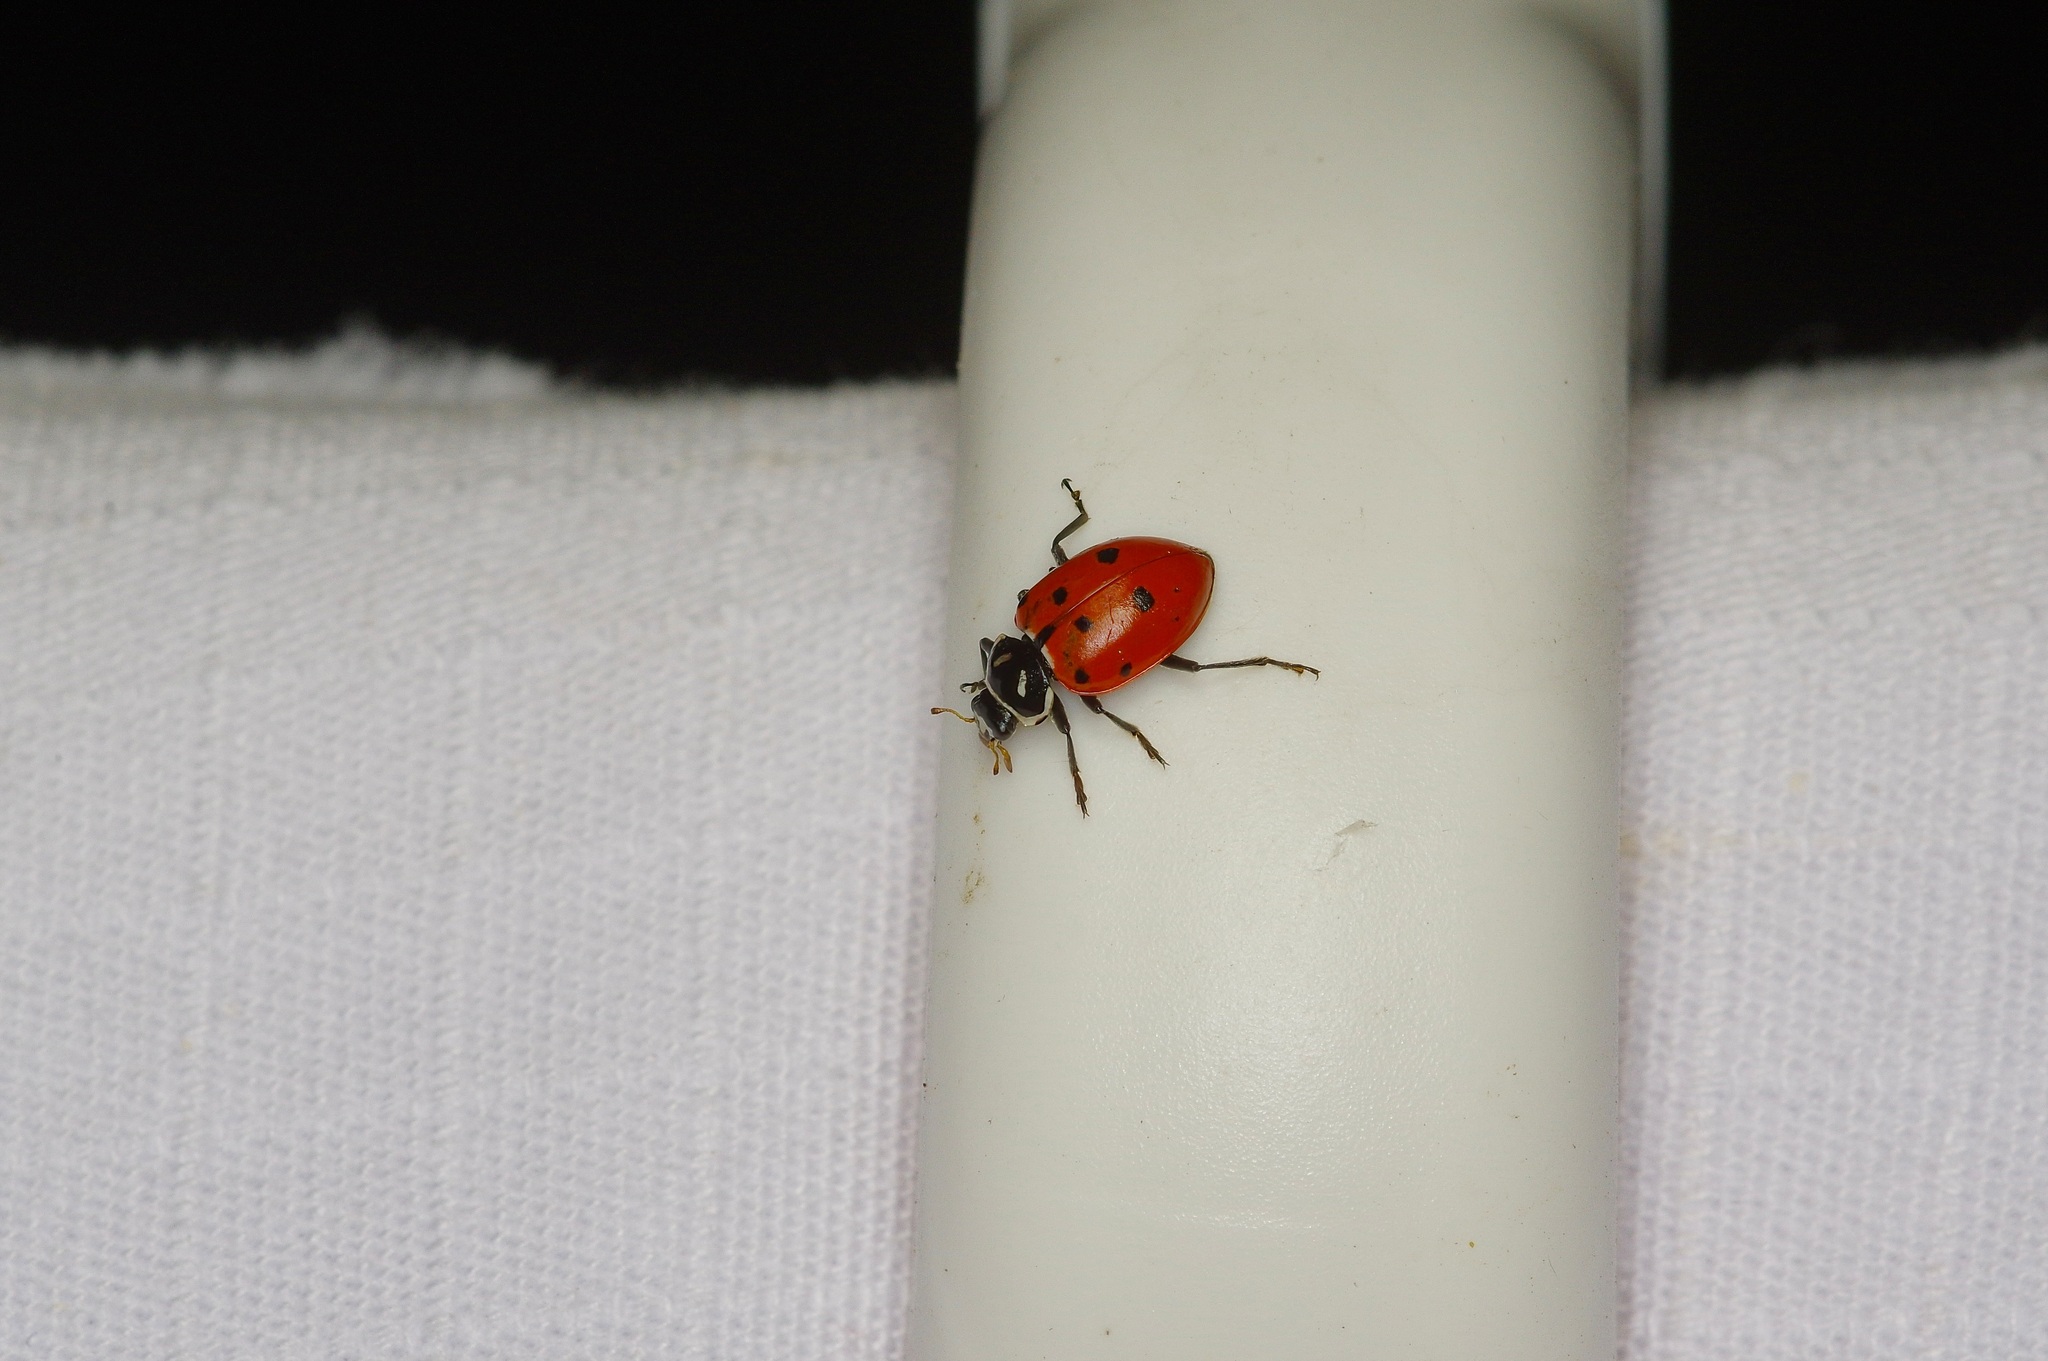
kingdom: Animalia
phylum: Arthropoda
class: Insecta
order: Coleoptera
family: Coccinellidae
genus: Hippodamia
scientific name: Hippodamia convergens
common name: Convergent lady beetle
